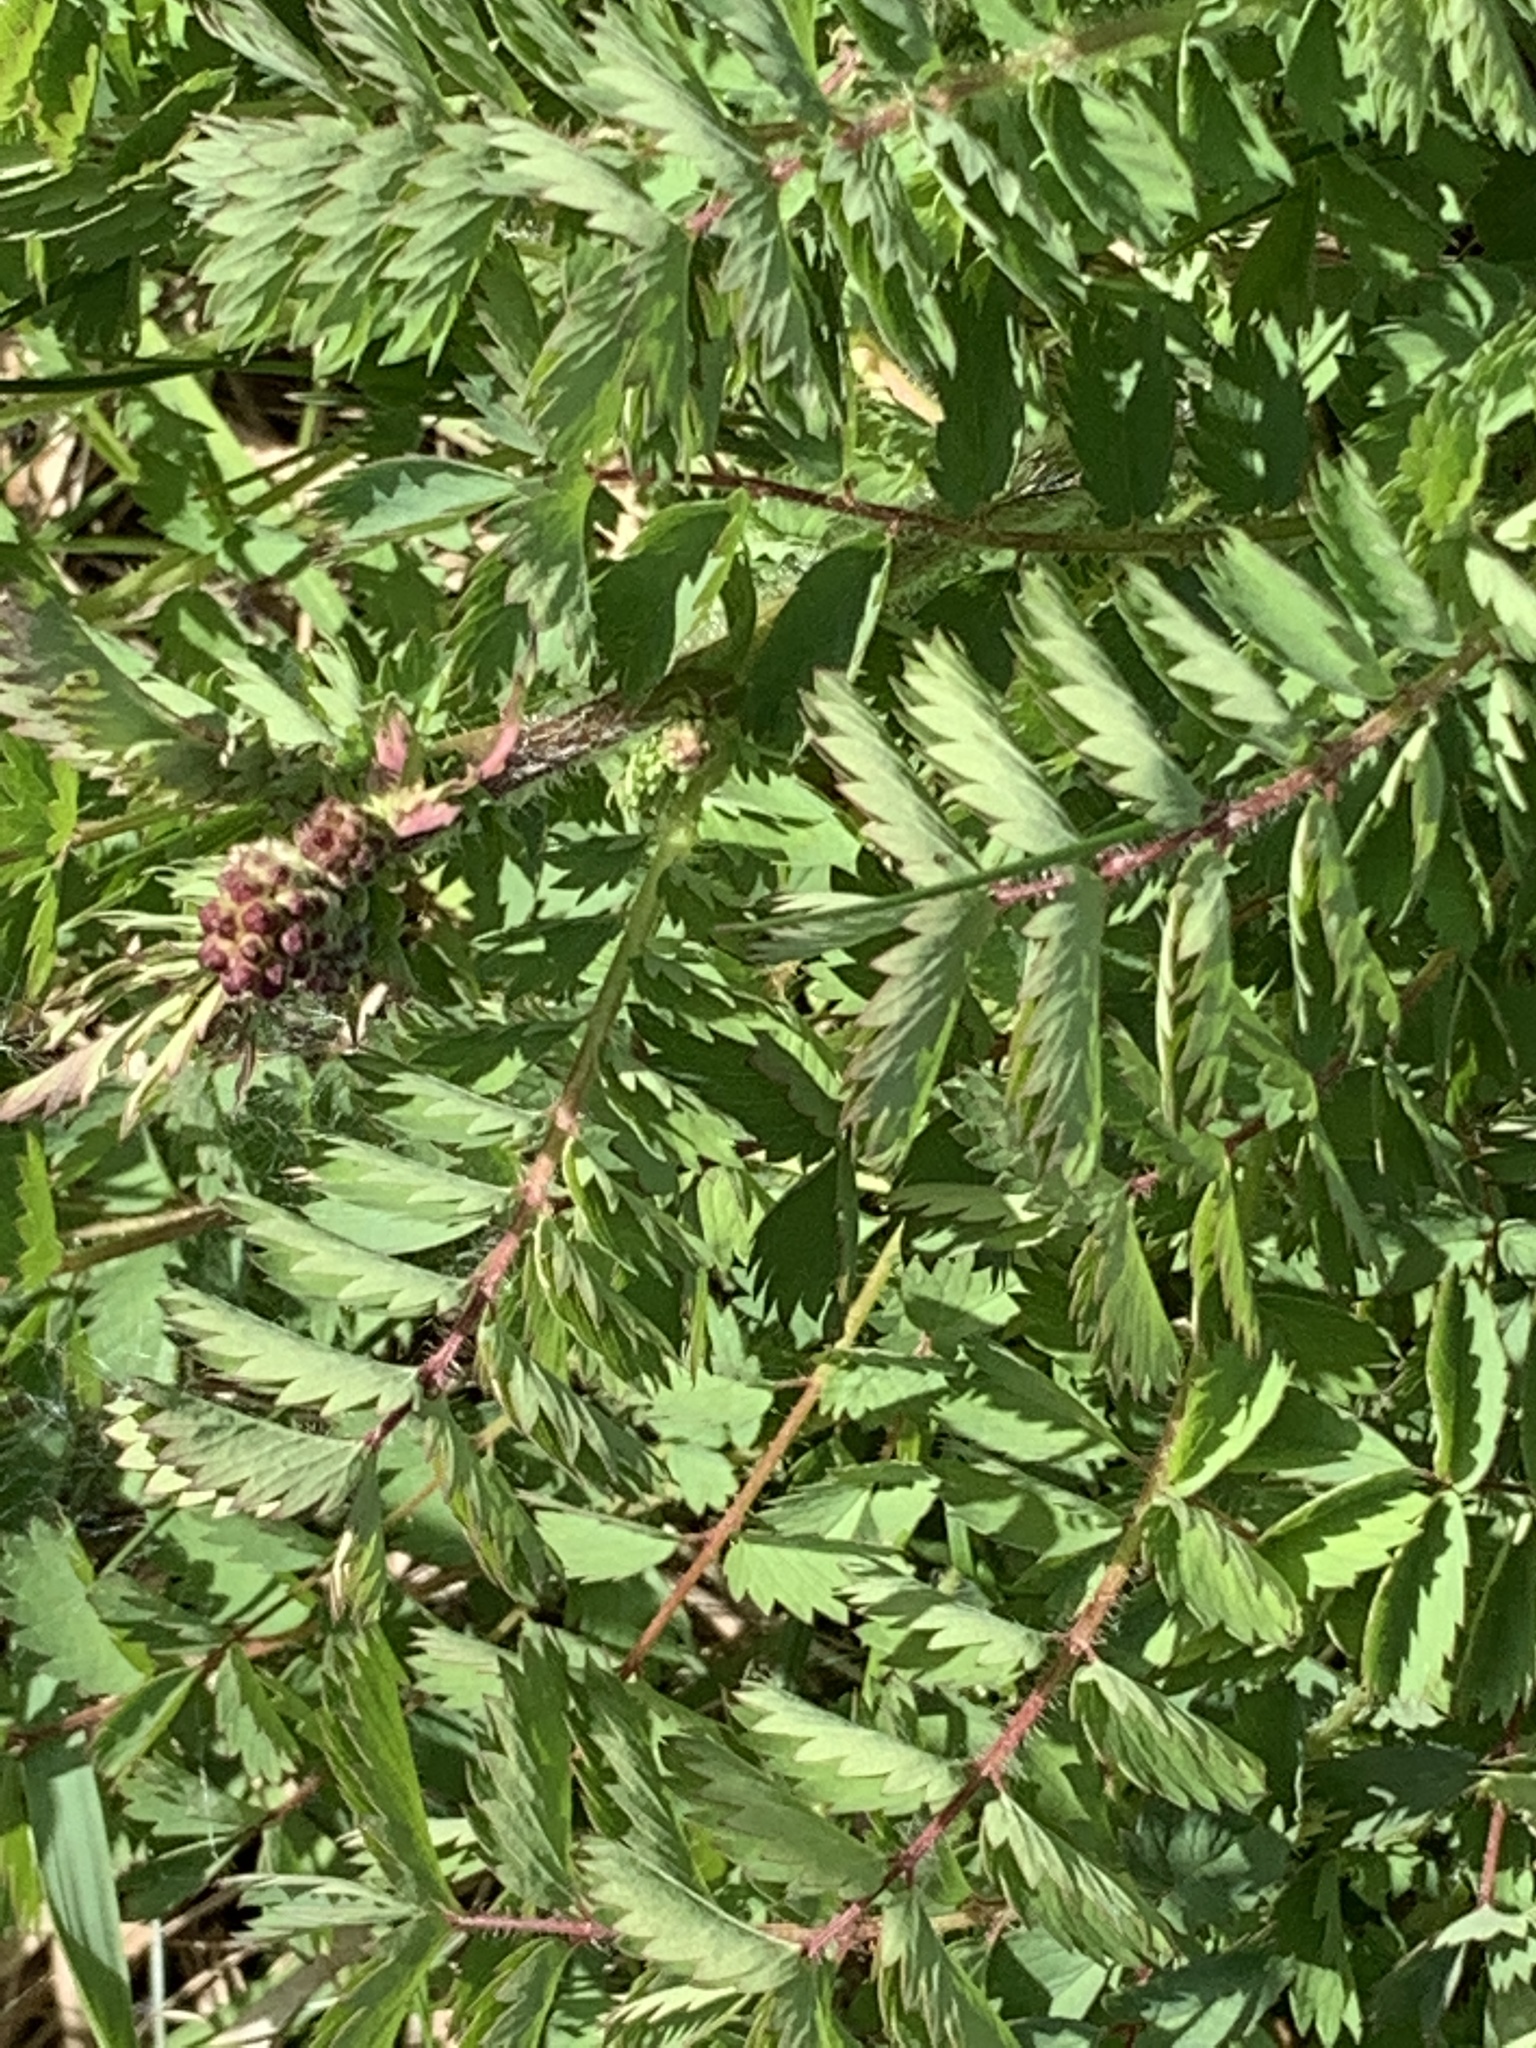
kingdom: Plantae
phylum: Tracheophyta
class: Magnoliopsida
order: Rosales
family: Rosaceae
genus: Poterium
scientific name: Poterium sanguisorba
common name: Salad burnet
